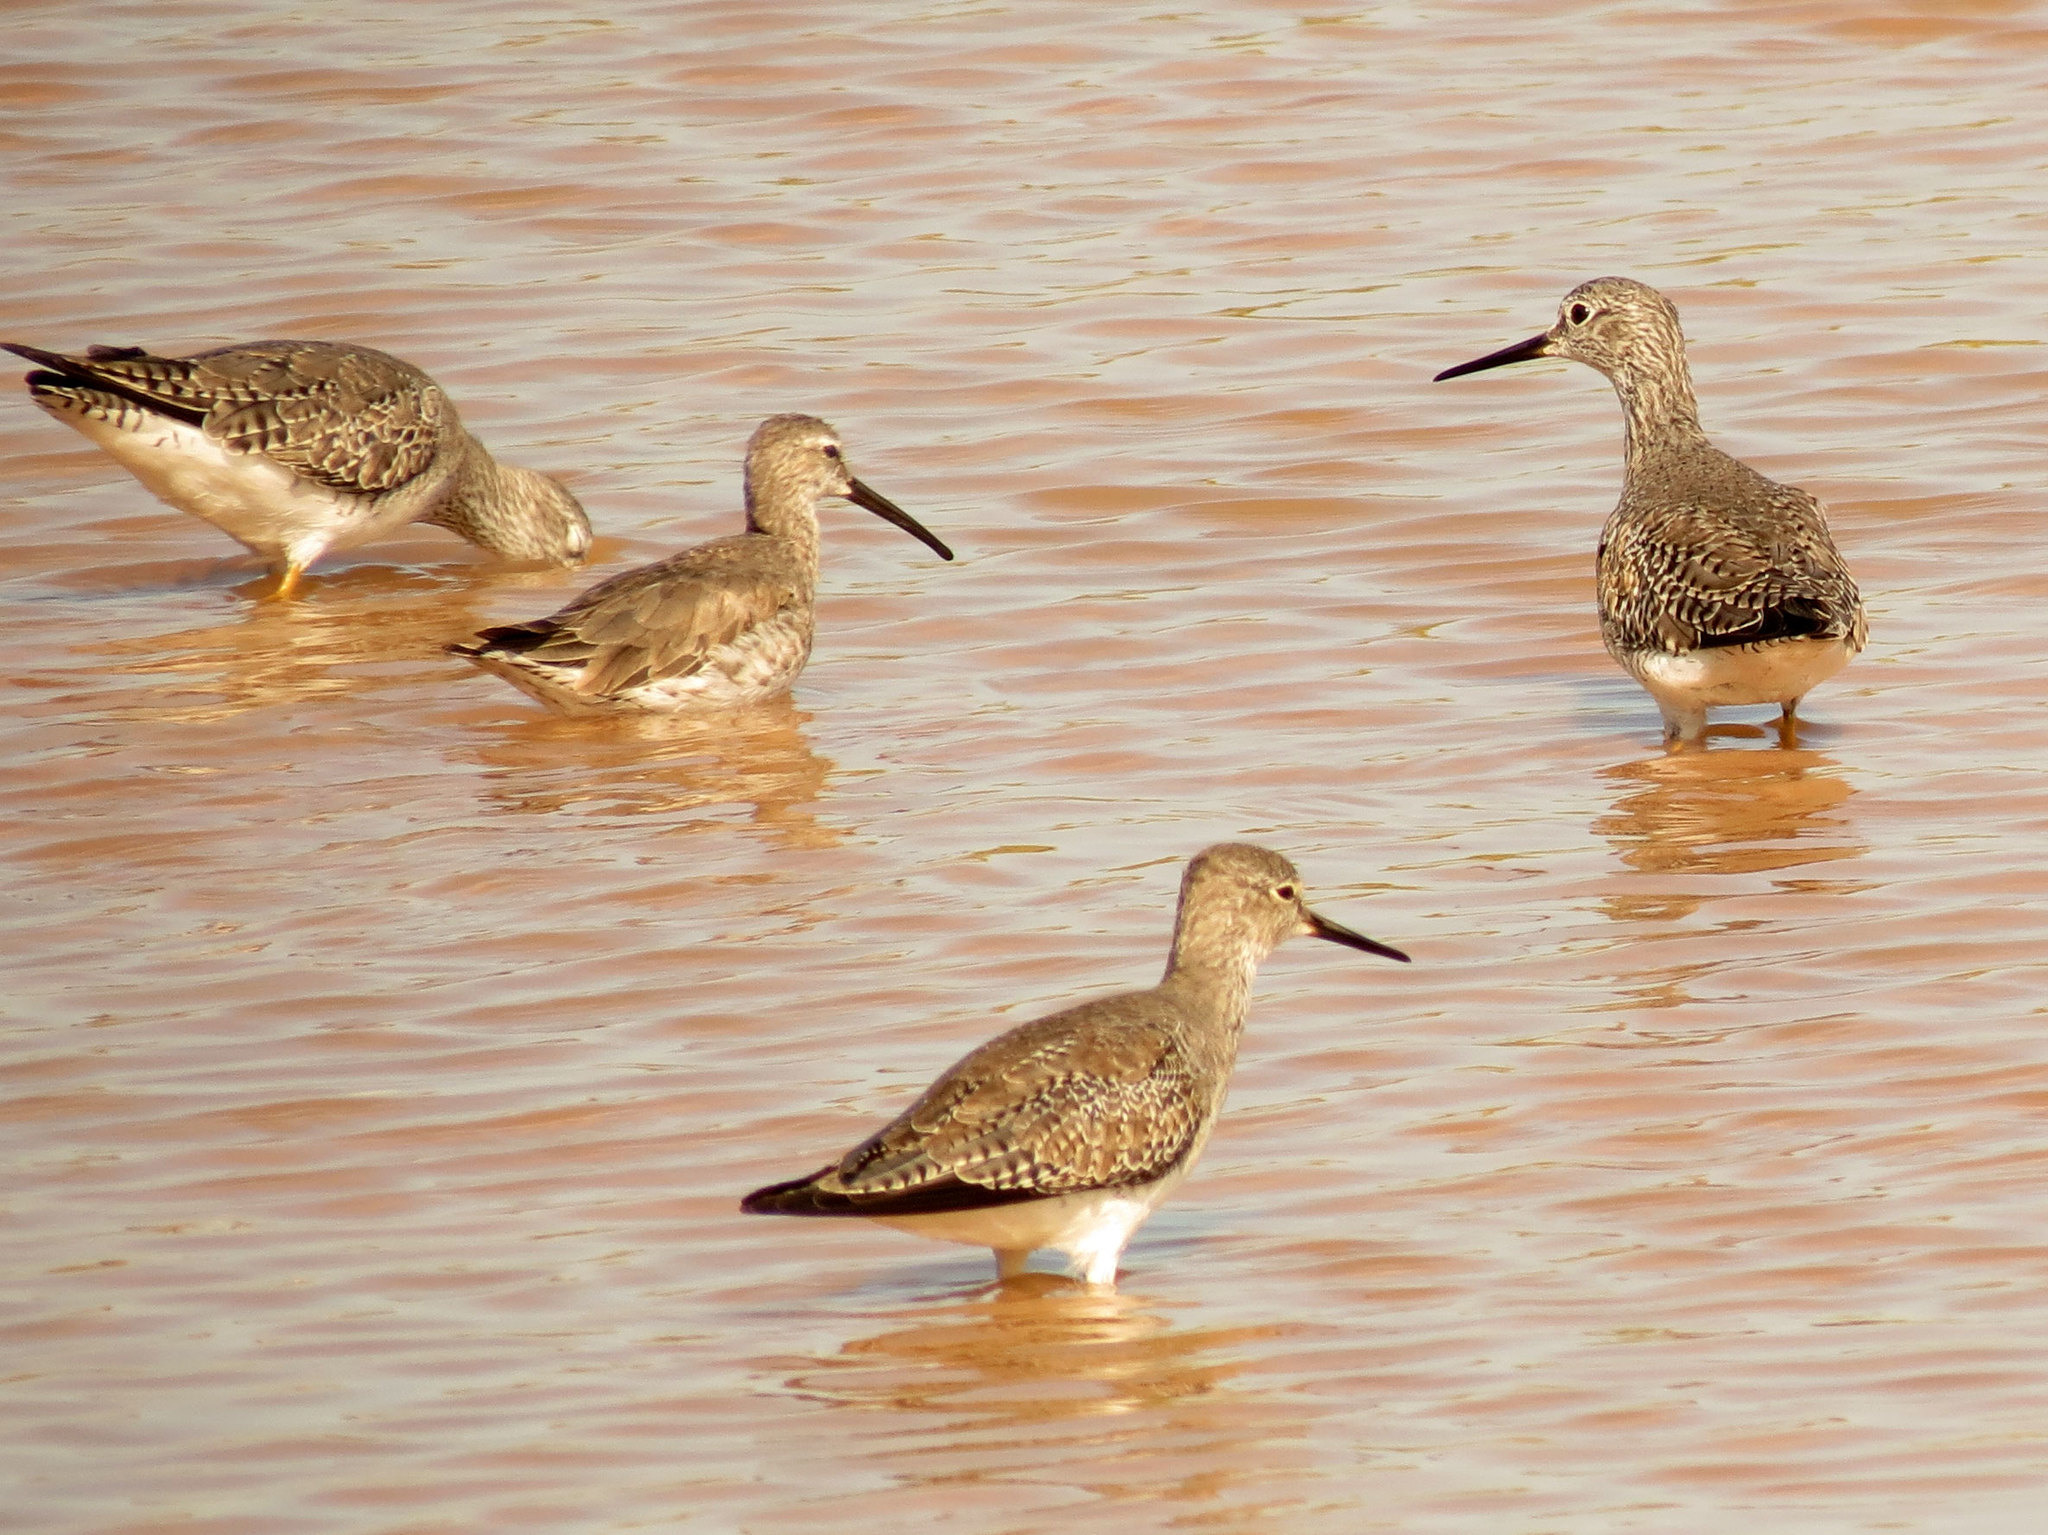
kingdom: Animalia
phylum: Chordata
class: Aves
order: Charadriiformes
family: Scolopacidae
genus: Tringa
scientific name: Tringa flavipes
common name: Lesser yellowlegs
